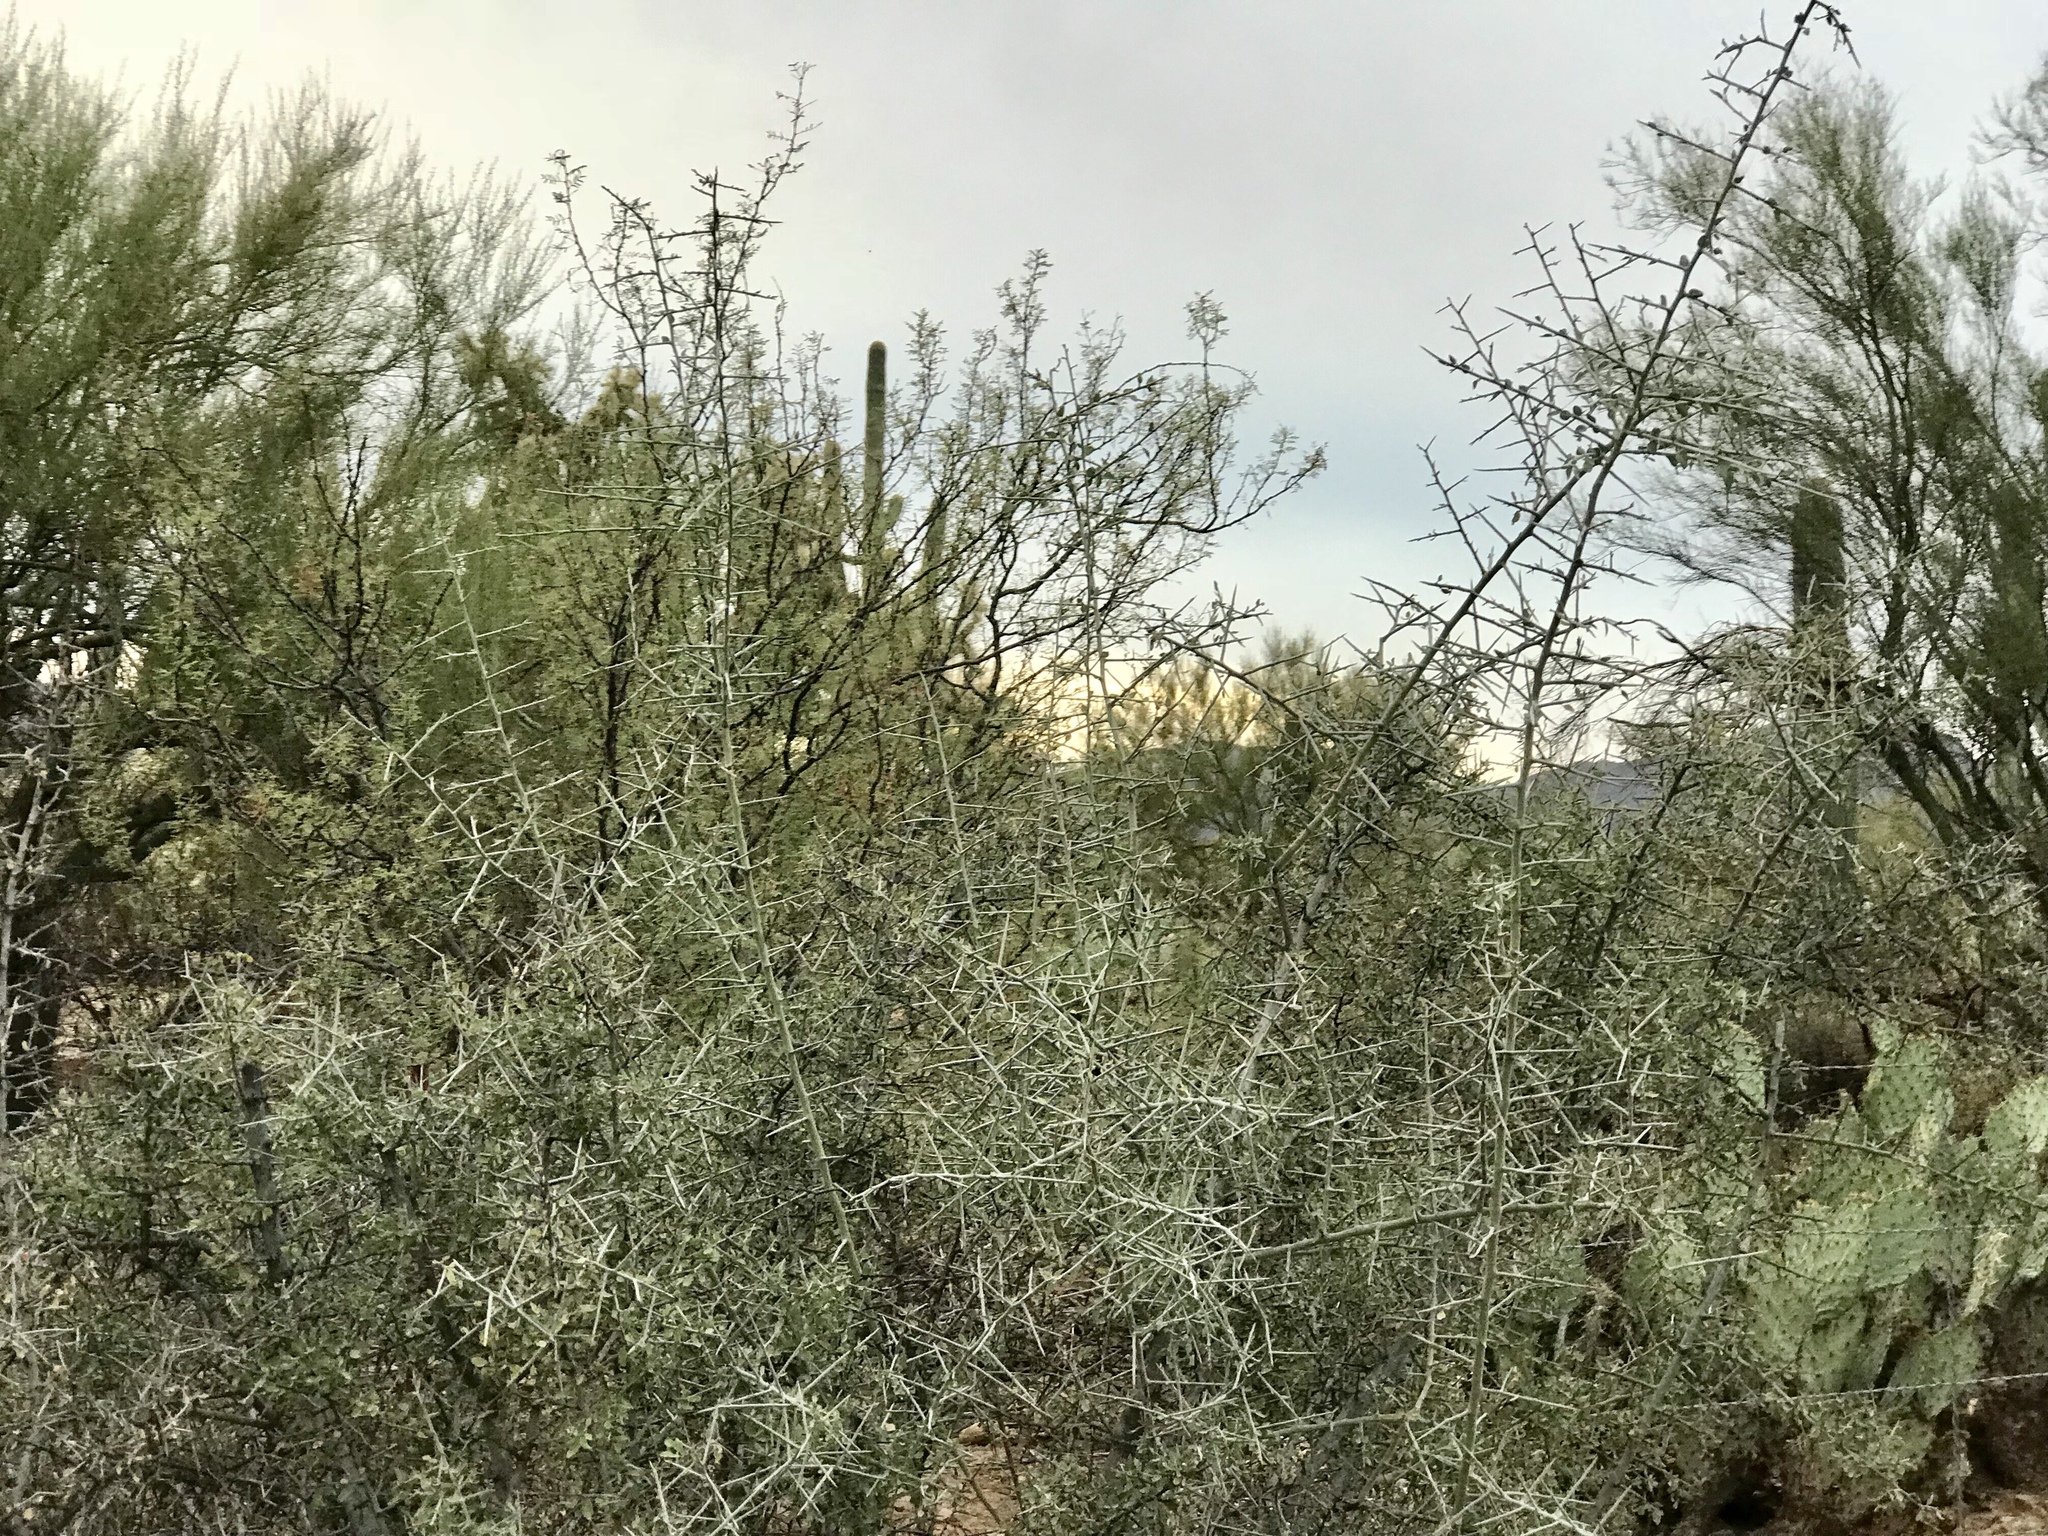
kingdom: Plantae
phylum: Tracheophyta
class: Magnoliopsida
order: Rosales
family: Rhamnaceae
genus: Sarcomphalus
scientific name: Sarcomphalus obtusifolius
